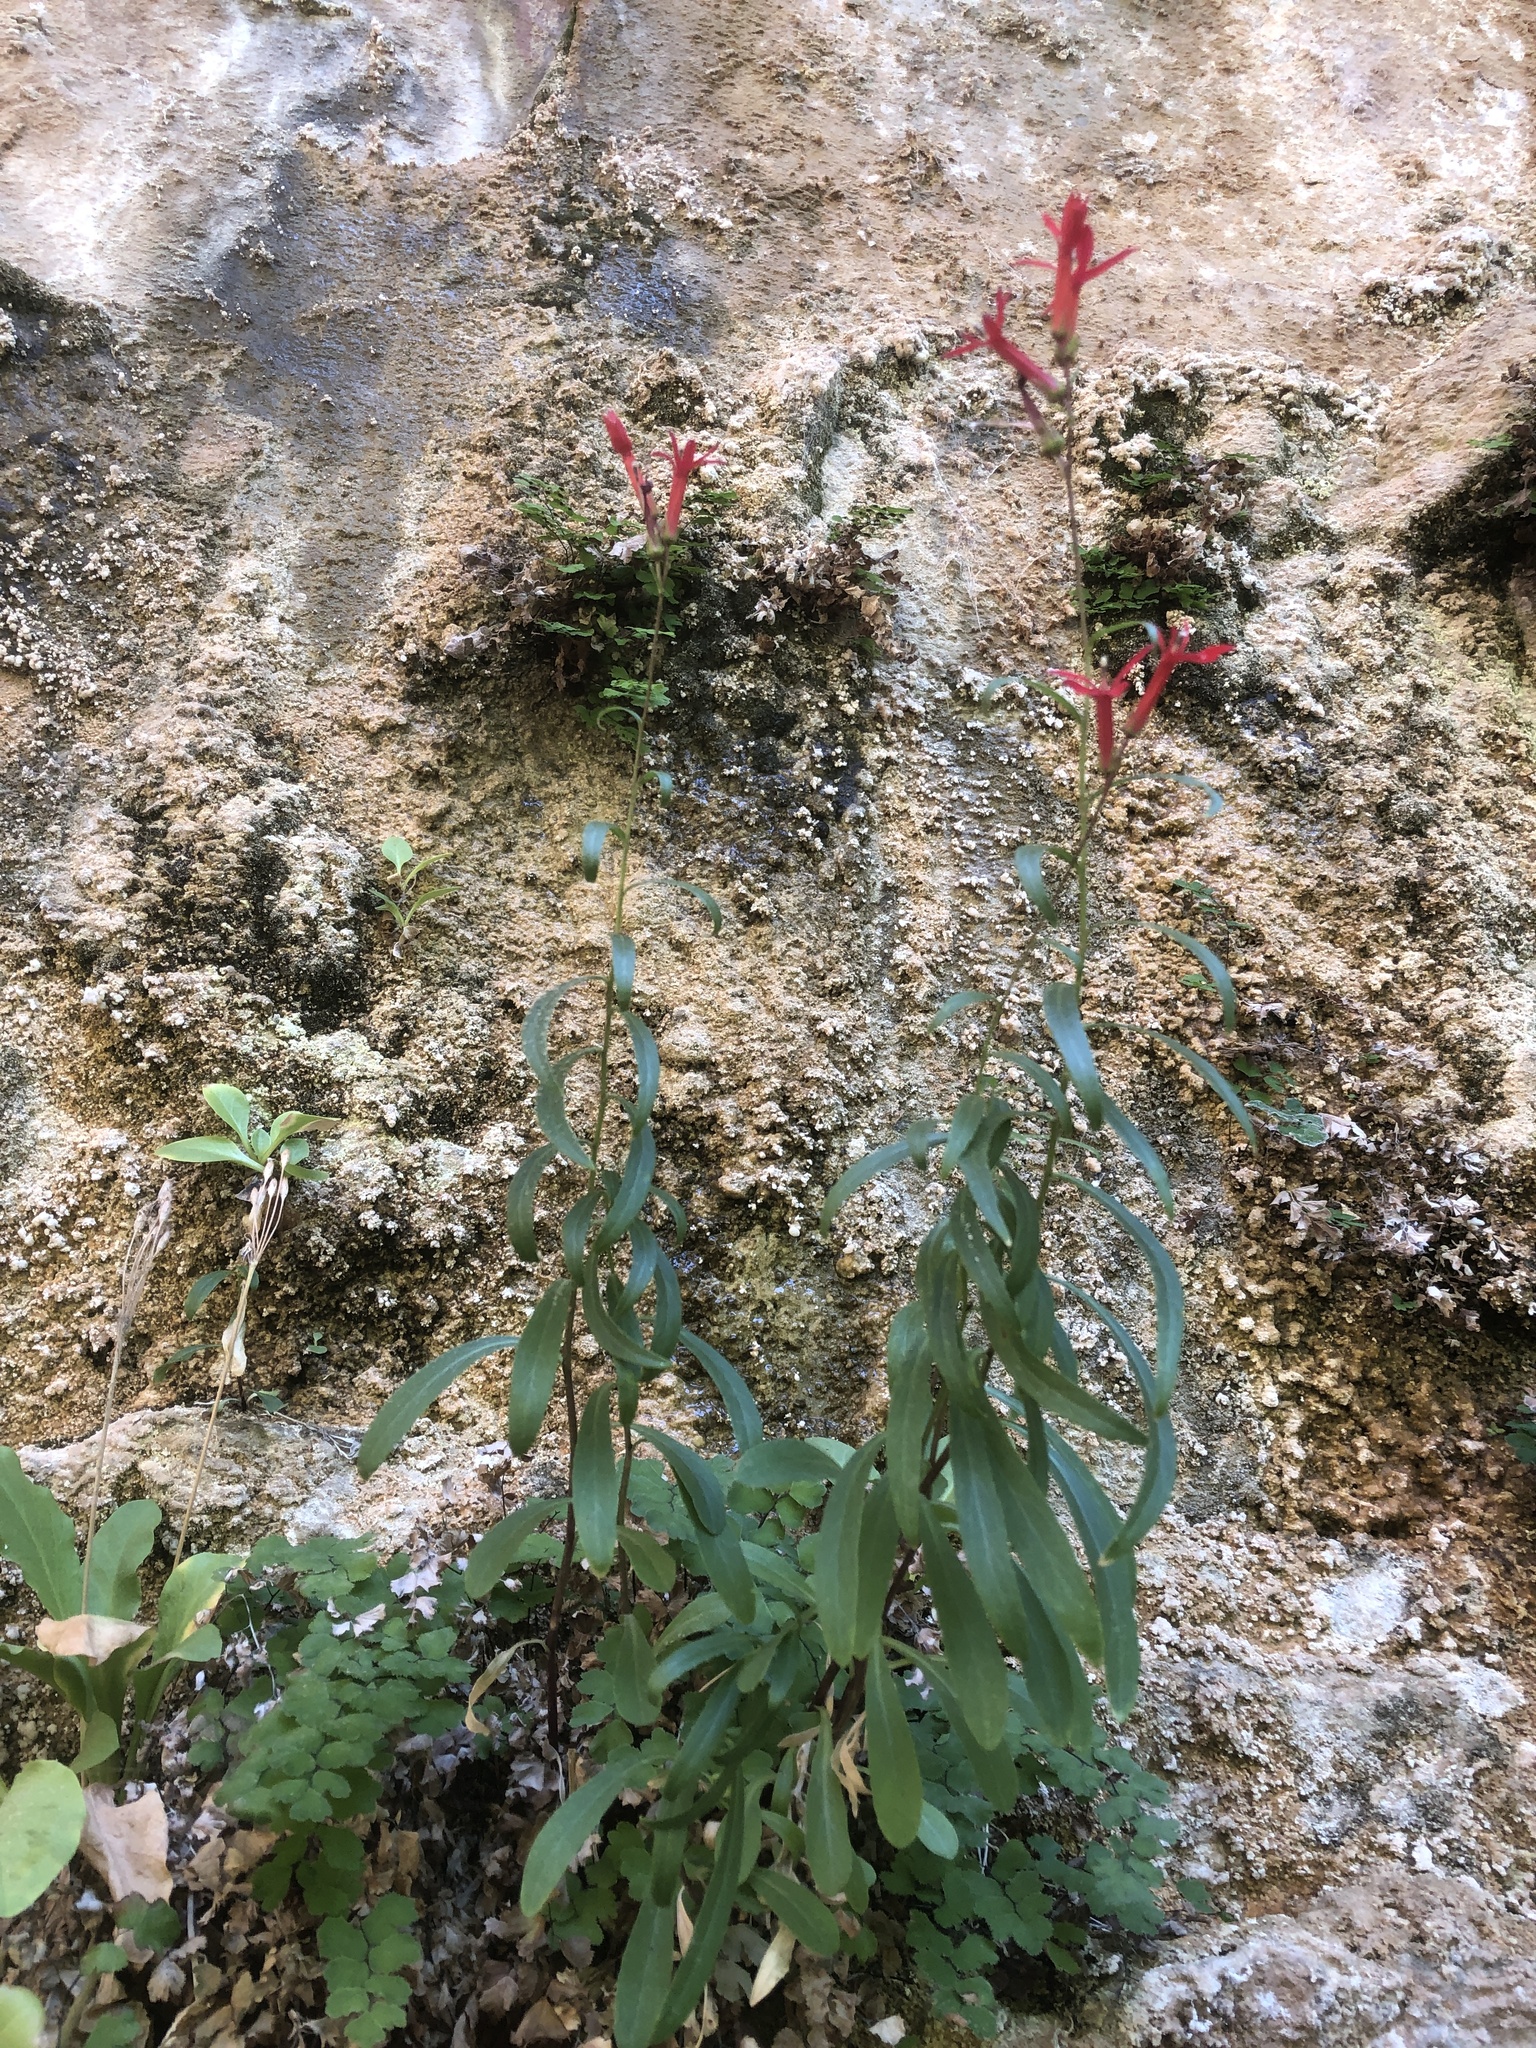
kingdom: Plantae
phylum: Tracheophyta
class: Magnoliopsida
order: Asterales
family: Campanulaceae
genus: Lobelia
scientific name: Lobelia cardinalis
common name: Cardinal flower
